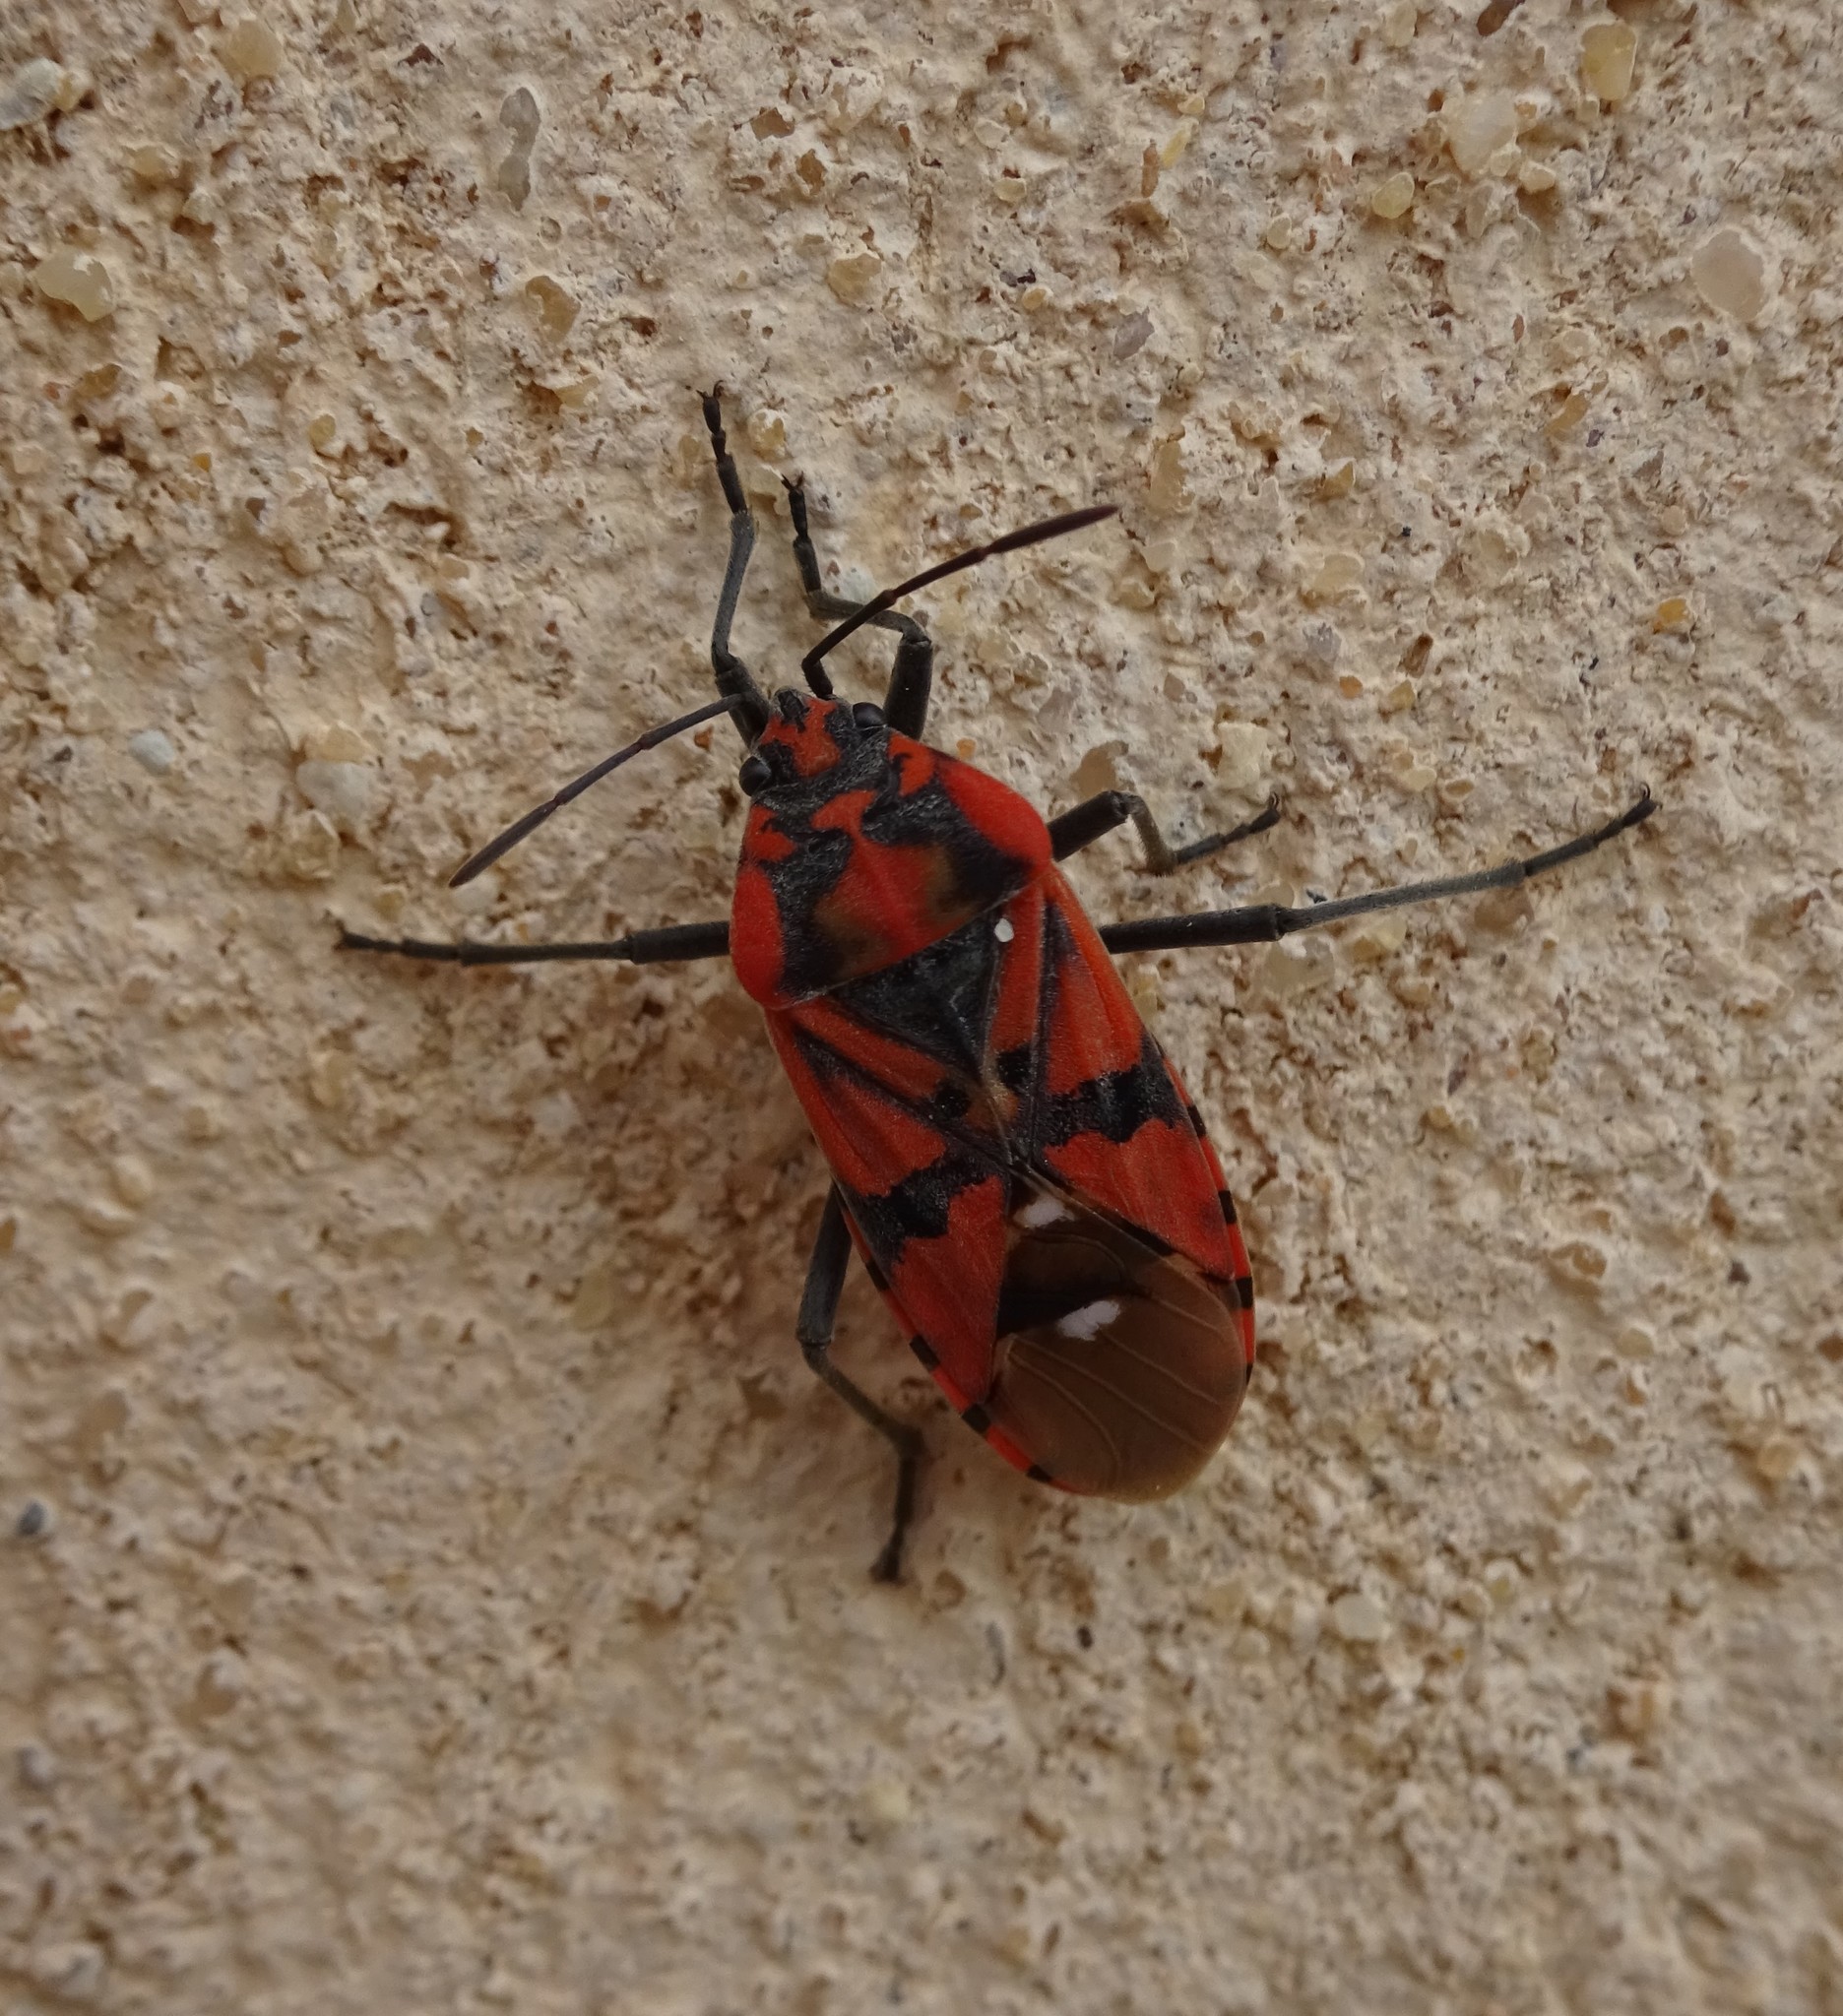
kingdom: Animalia
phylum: Arthropoda
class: Insecta
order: Hemiptera
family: Lygaeidae
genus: Spilostethus
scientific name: Spilostethus pandurus
